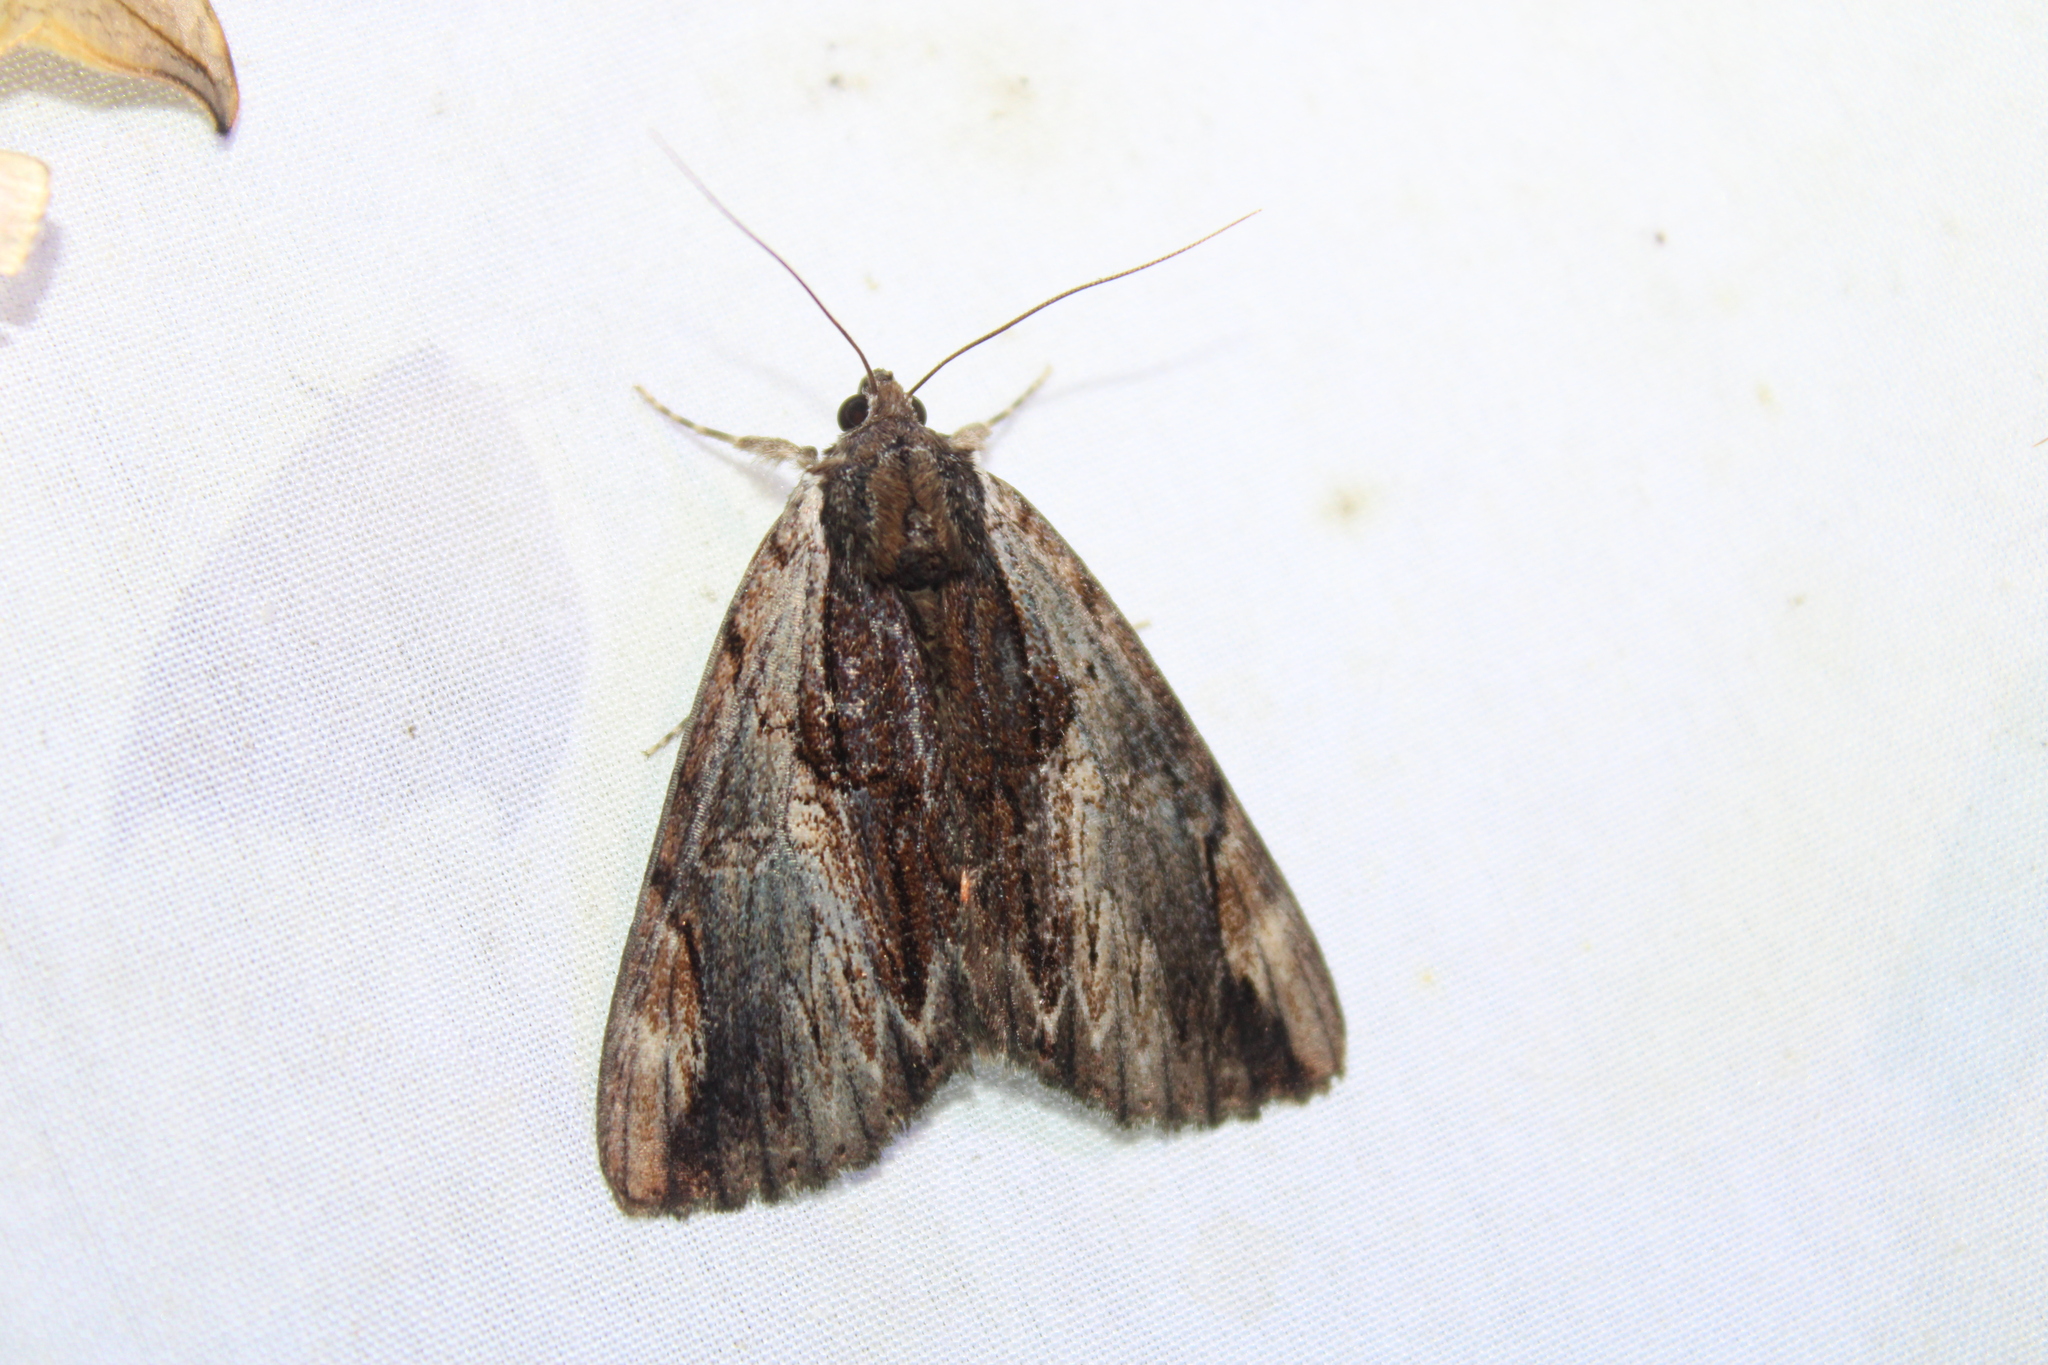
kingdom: Animalia
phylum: Arthropoda
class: Insecta
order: Lepidoptera
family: Erebidae
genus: Catocala
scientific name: Catocala ultronia
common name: Ultronia underwing
